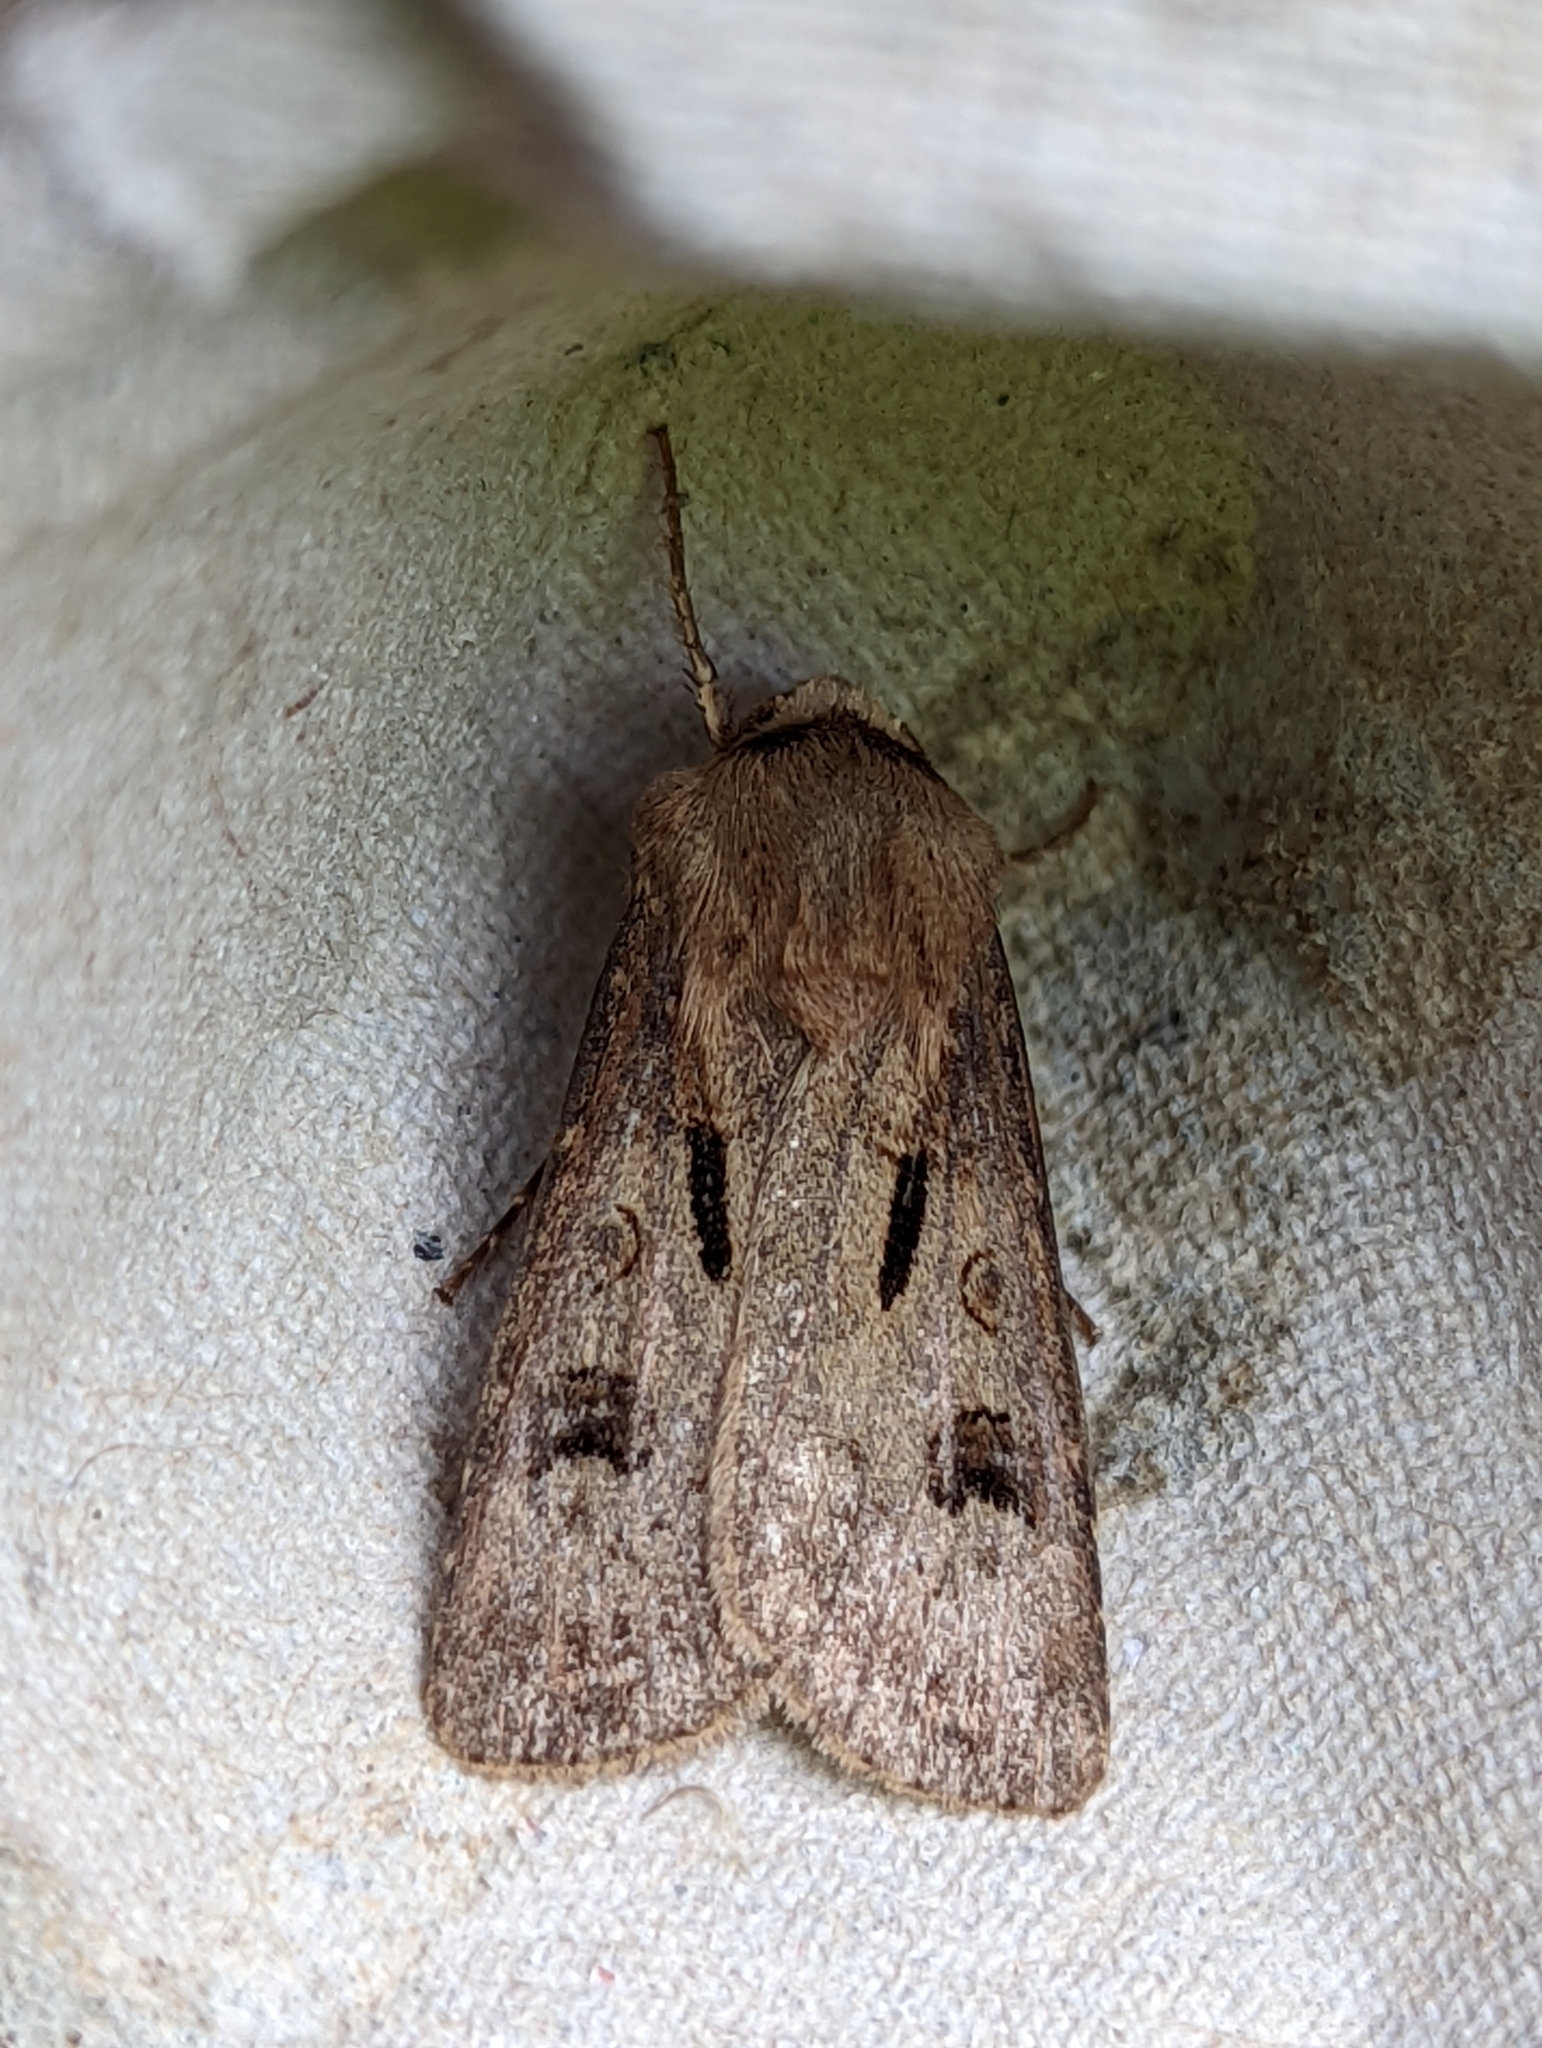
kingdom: Animalia
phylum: Arthropoda
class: Insecta
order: Lepidoptera
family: Noctuidae
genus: Agrotis
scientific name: Agrotis exclamationis
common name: Heart and dart
